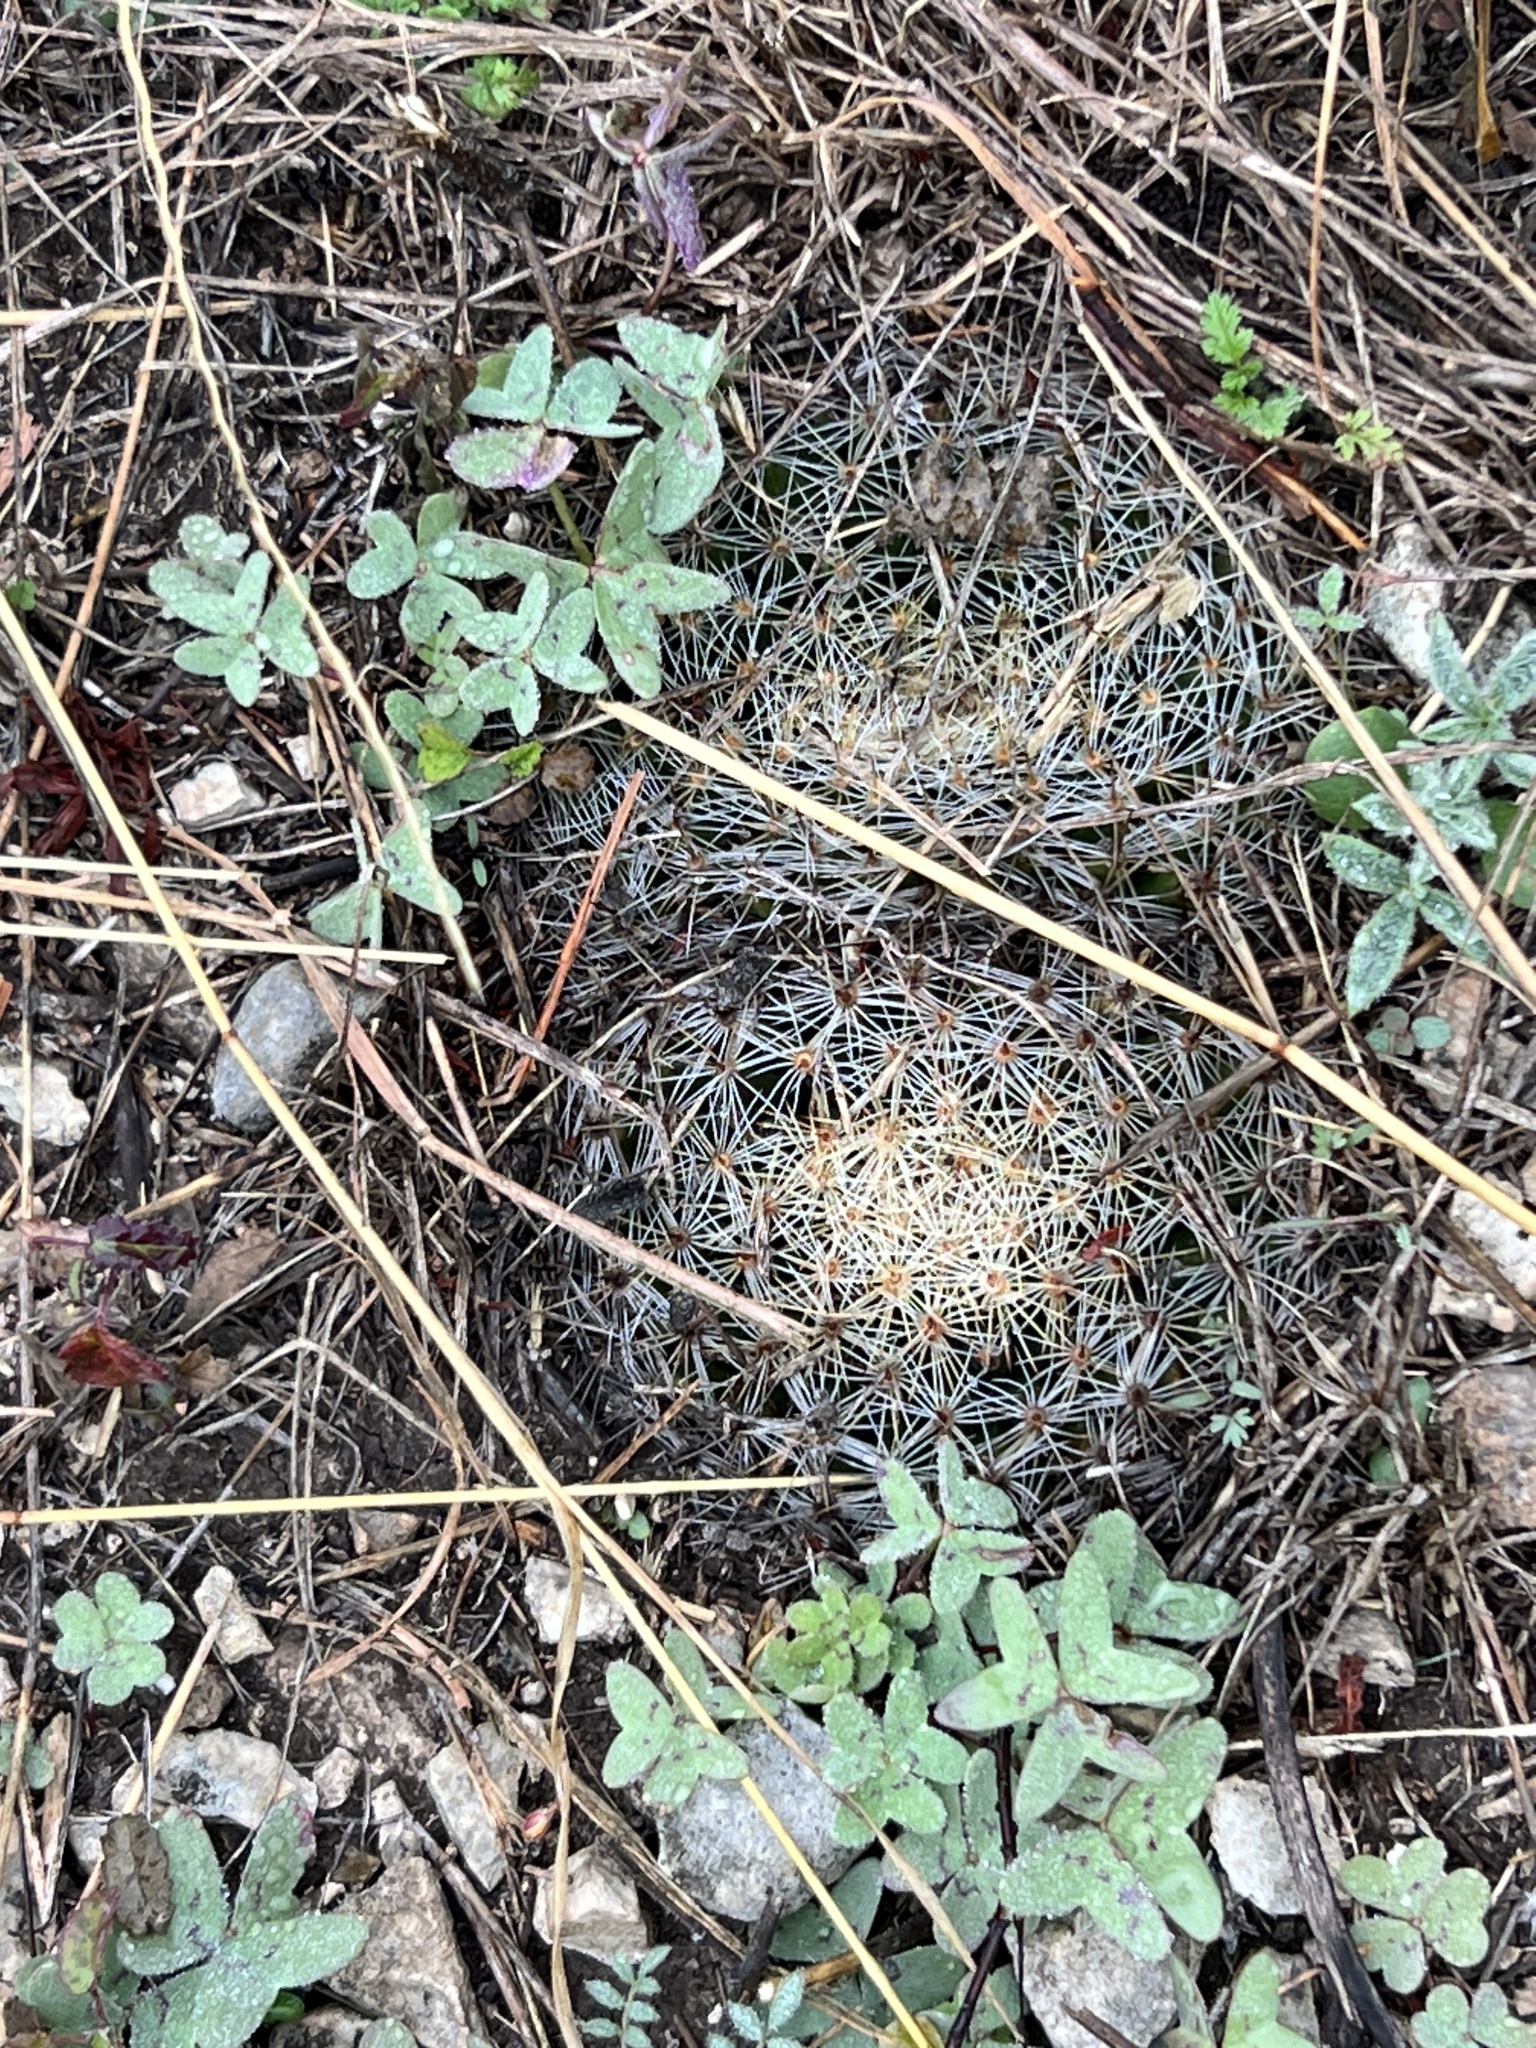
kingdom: Plantae
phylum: Tracheophyta
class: Magnoliopsida
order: Caryophyllales
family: Cactaceae
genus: Mammillaria
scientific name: Mammillaria heyderi
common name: Little nipple cactus
